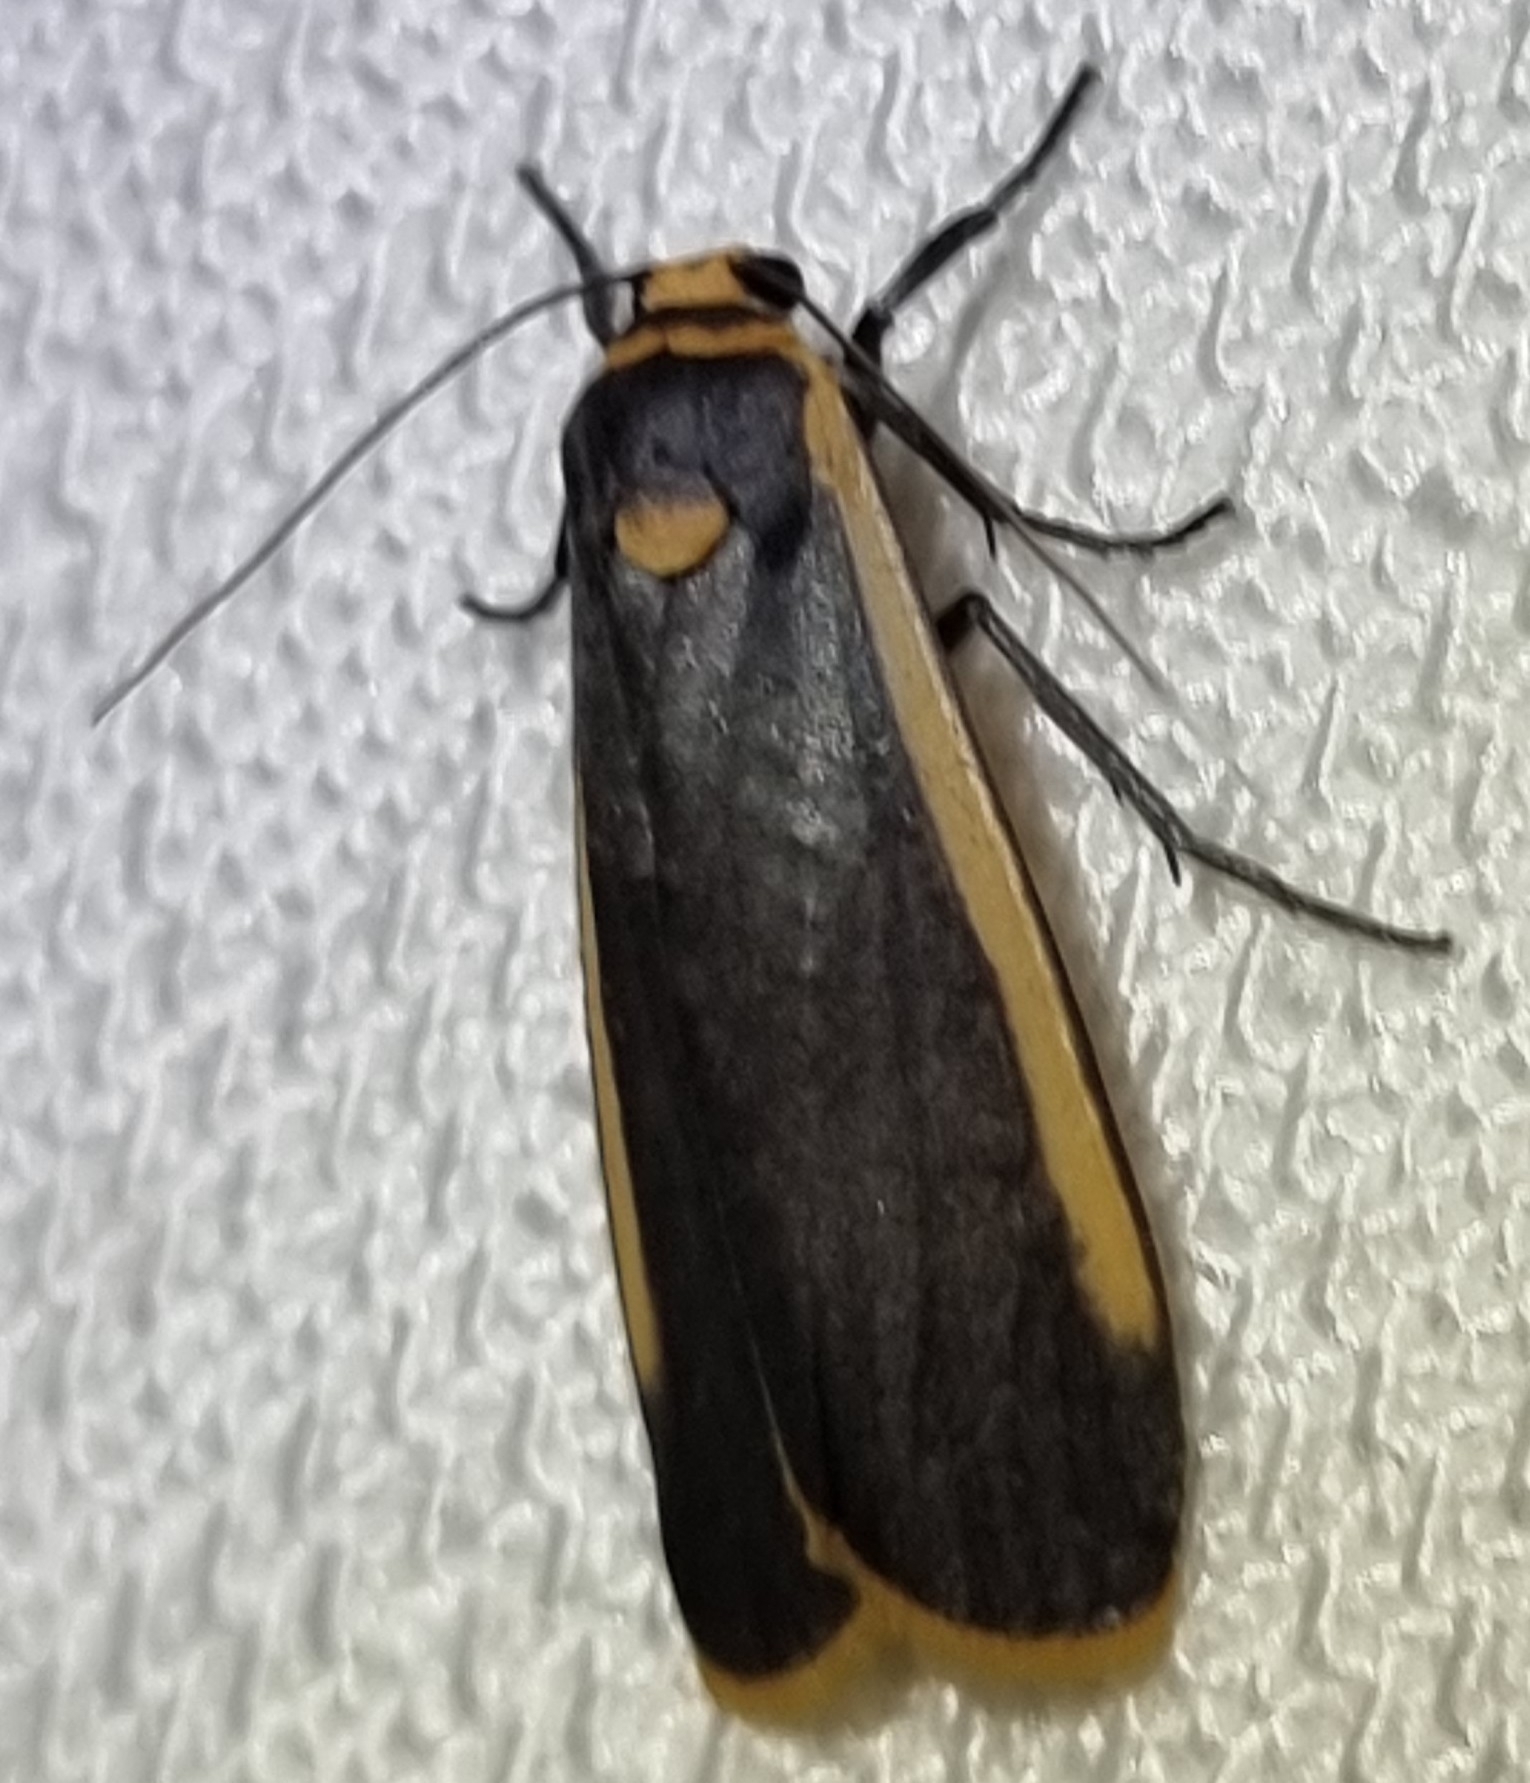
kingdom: Animalia
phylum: Arthropoda
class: Insecta
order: Lepidoptera
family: Erebidae
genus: Brunia
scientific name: Brunia replana
